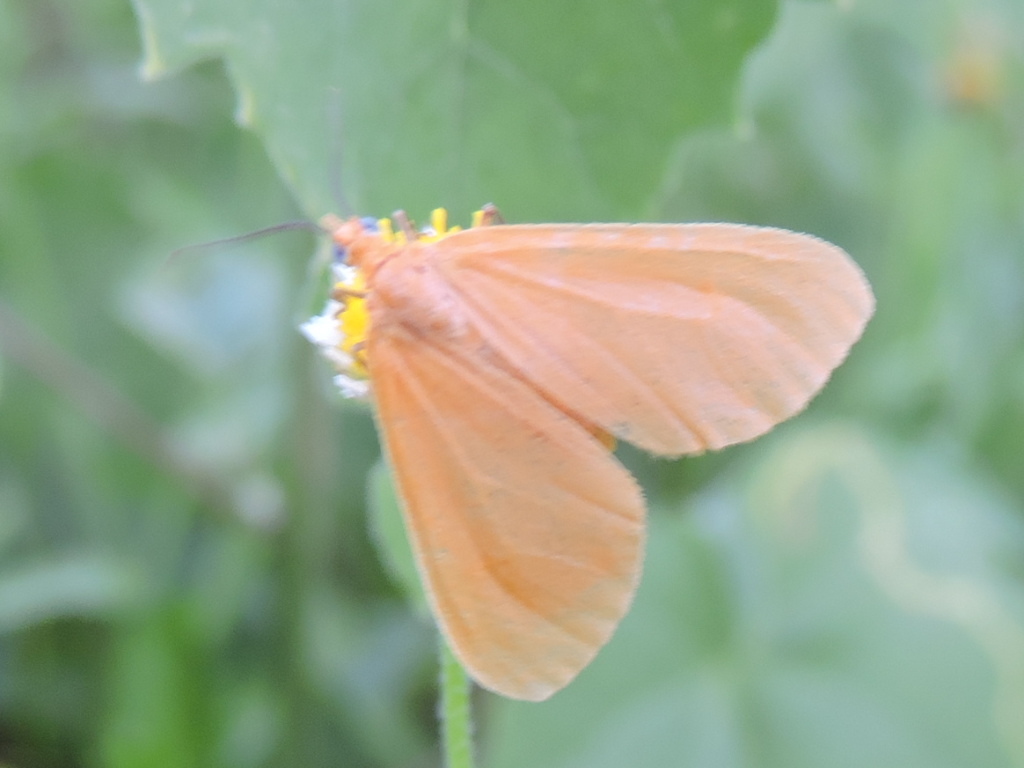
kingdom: Animalia
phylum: Arthropoda
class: Insecta
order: Lepidoptera
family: Geometridae
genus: Eubaphe
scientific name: Eubaphe unicolor
